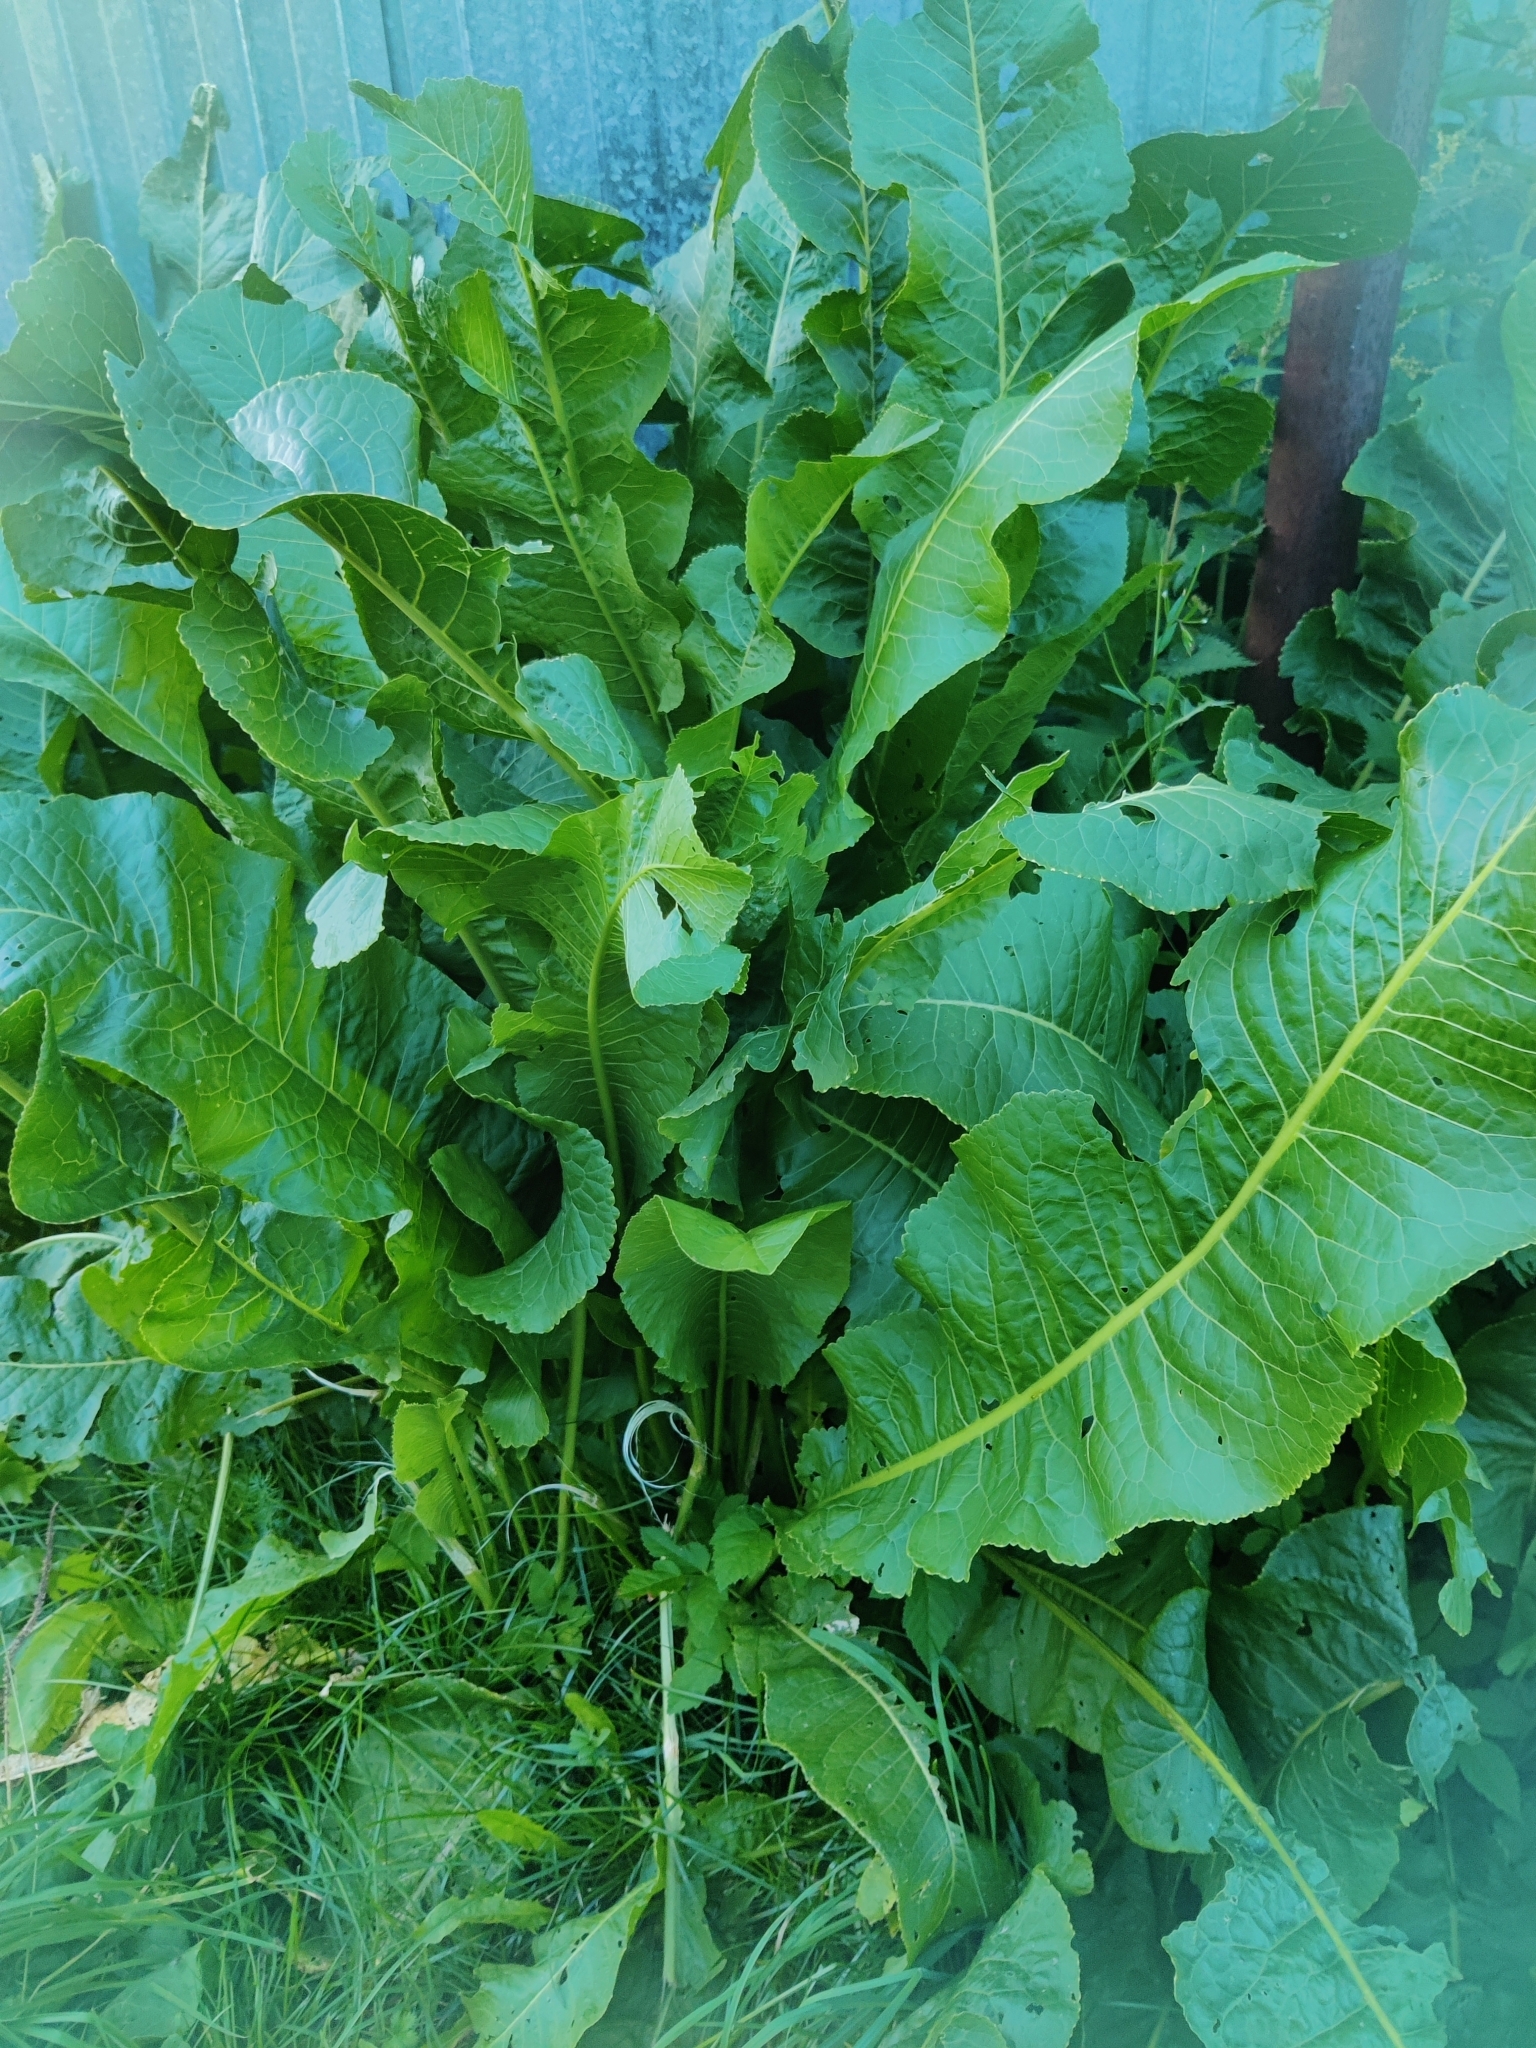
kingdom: Plantae
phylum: Tracheophyta
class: Magnoliopsida
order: Brassicales
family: Brassicaceae
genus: Armoracia
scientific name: Armoracia rusticana
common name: Horseradish
